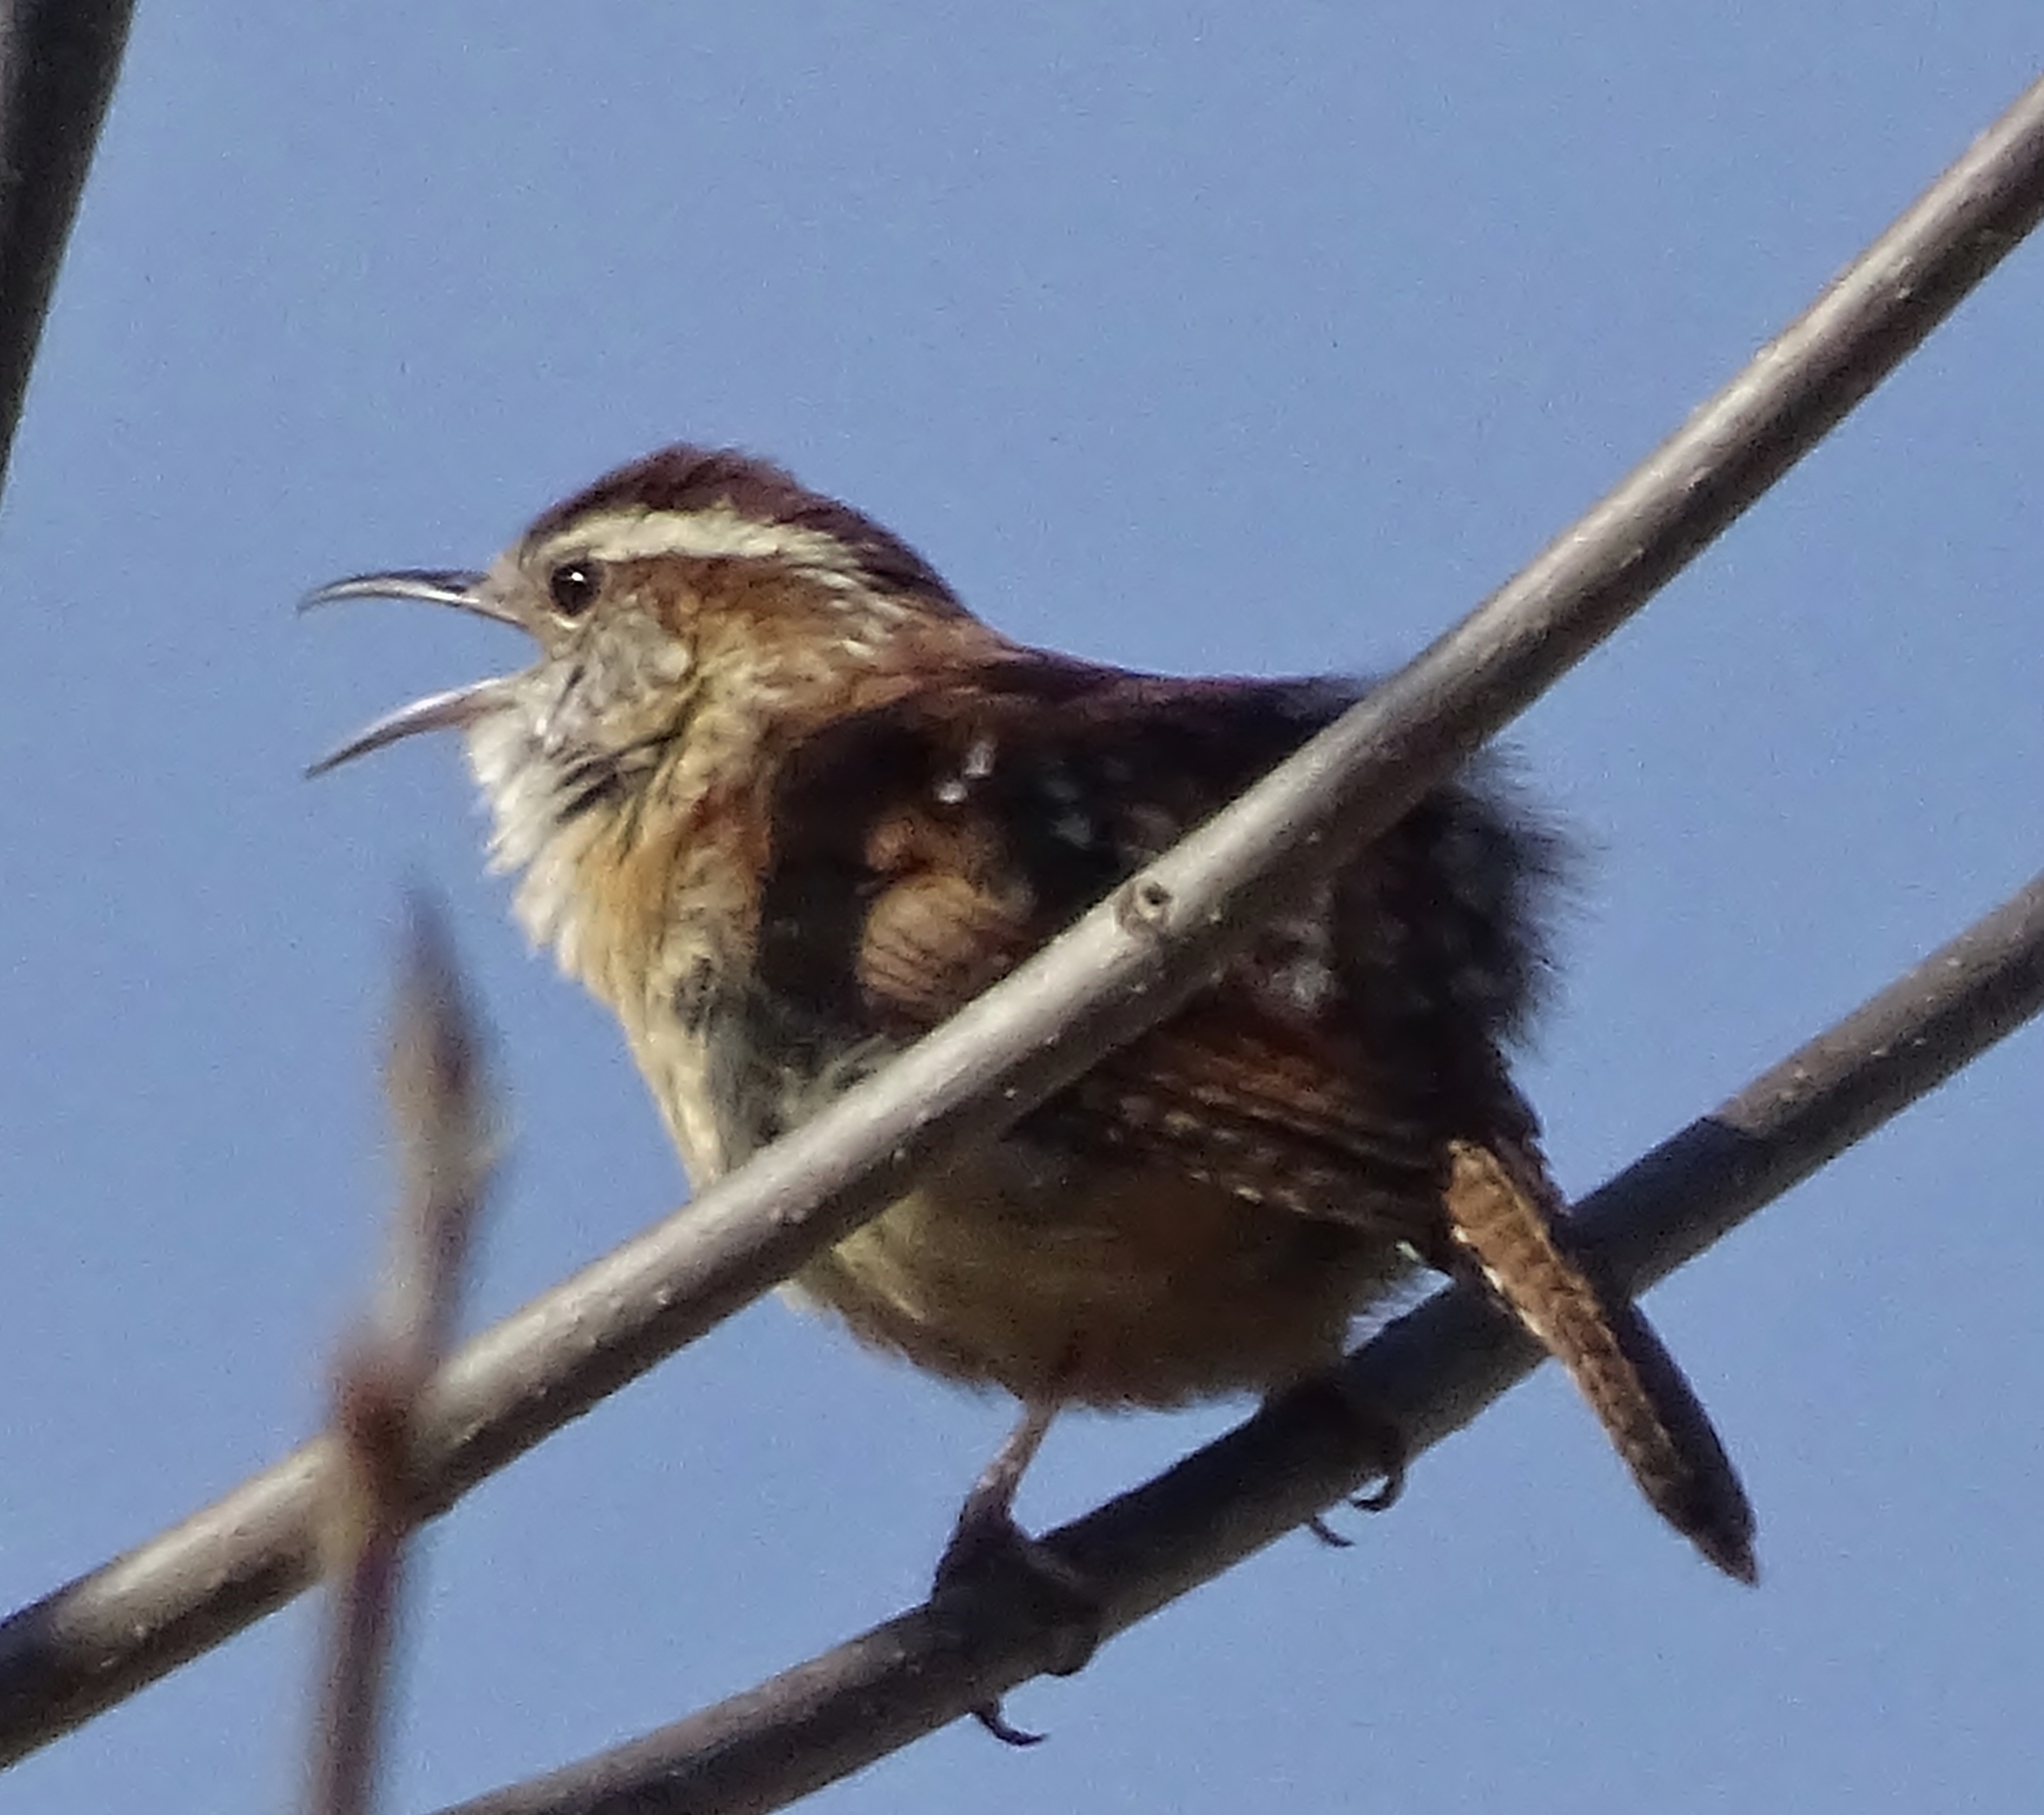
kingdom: Animalia
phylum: Chordata
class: Aves
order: Passeriformes
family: Troglodytidae
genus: Thryothorus
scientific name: Thryothorus ludovicianus
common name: Carolina wren
